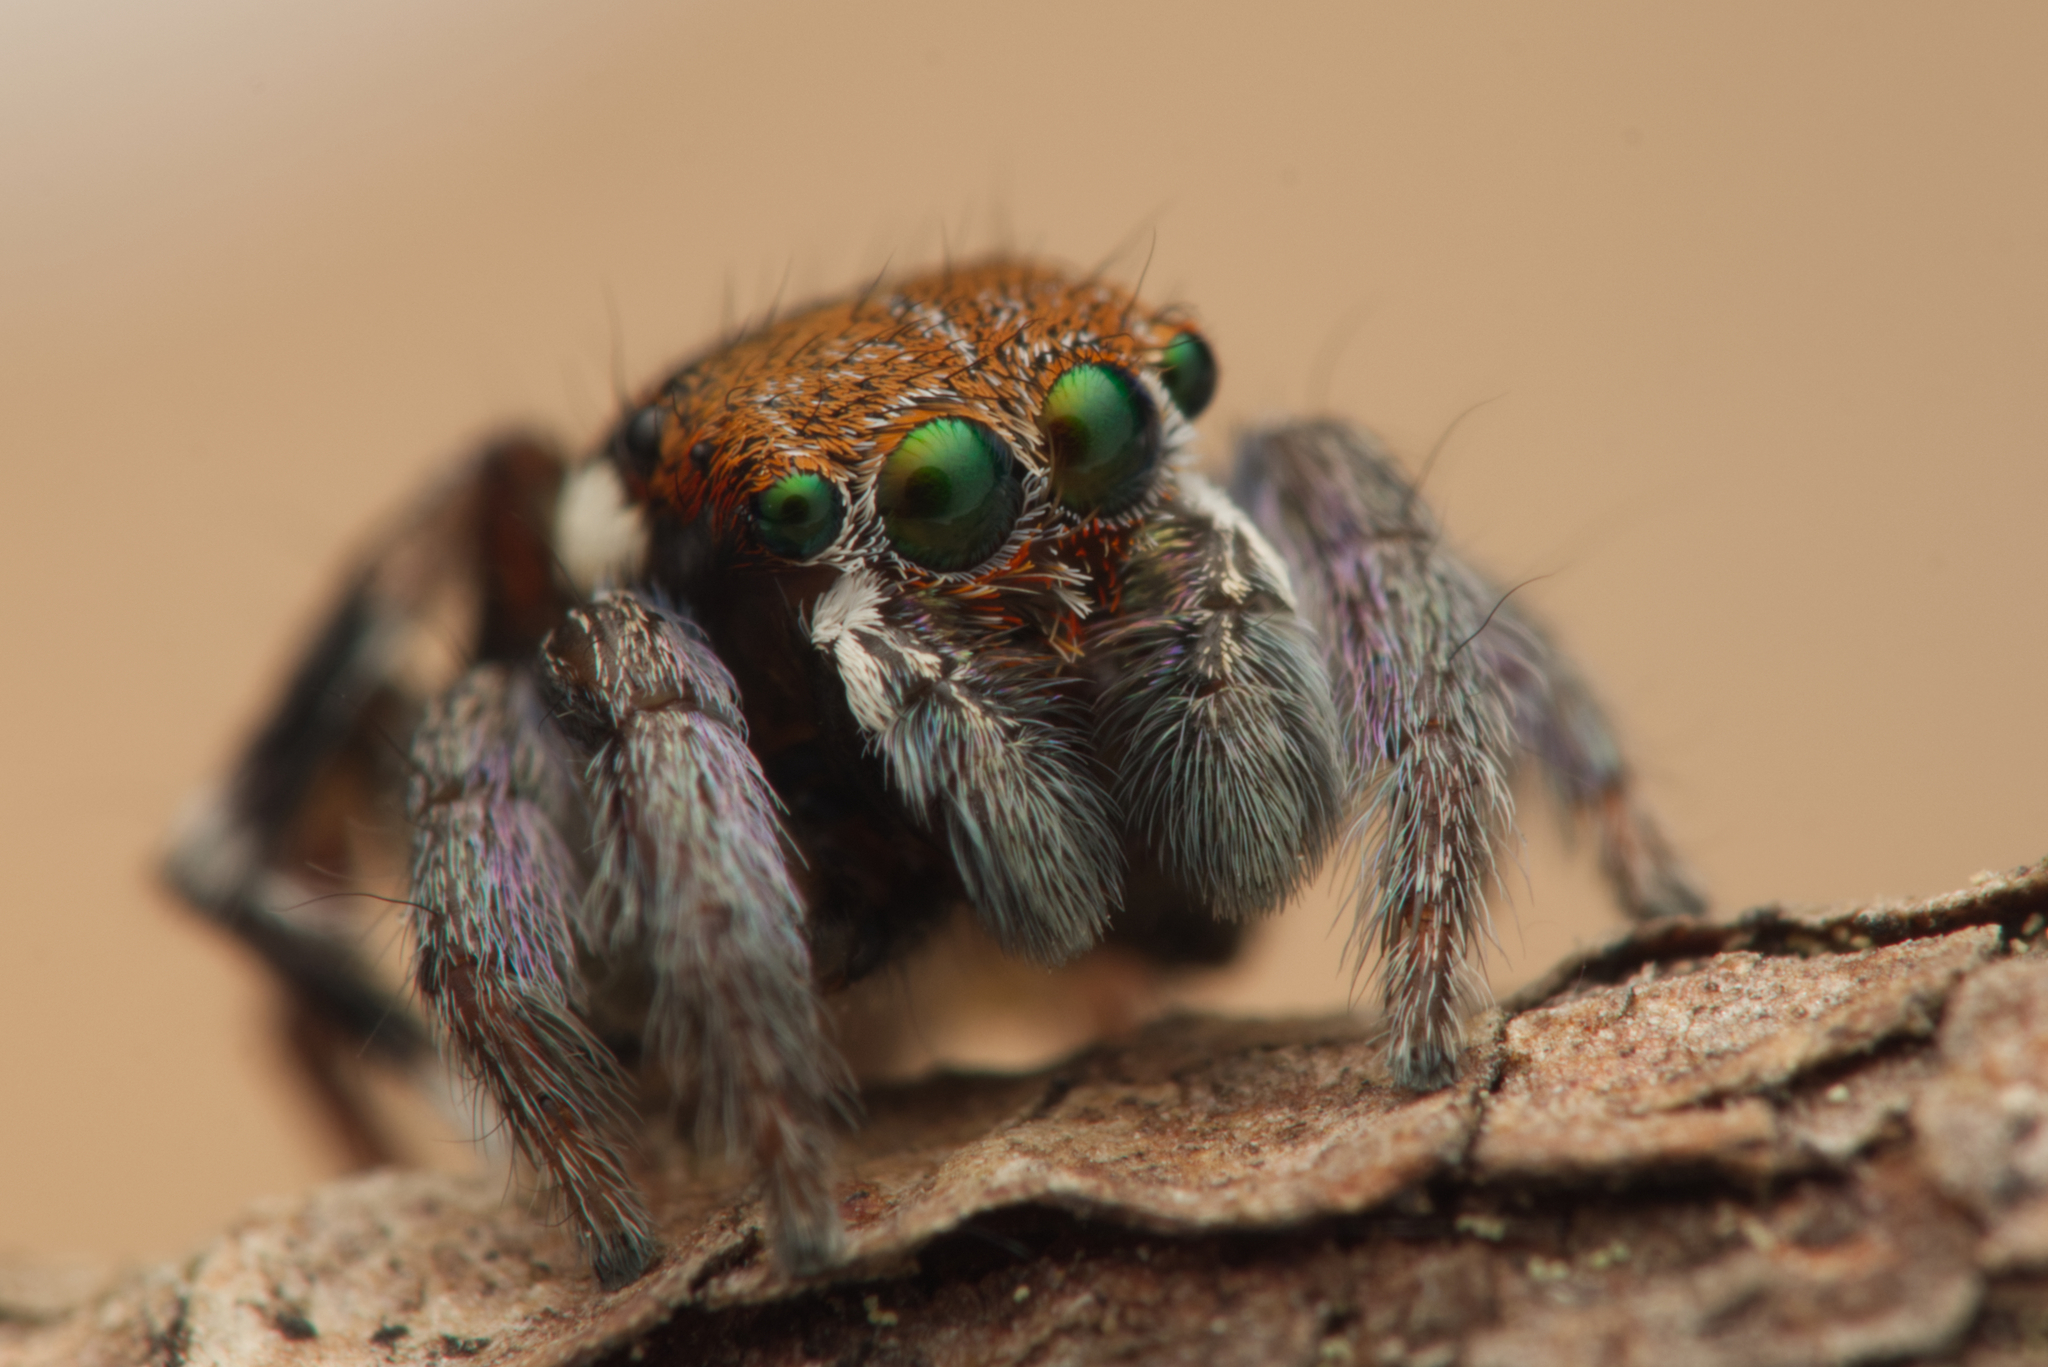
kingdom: Animalia
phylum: Arthropoda
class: Arachnida
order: Araneae
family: Salticidae
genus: Maratus
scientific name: Maratus ottoi
